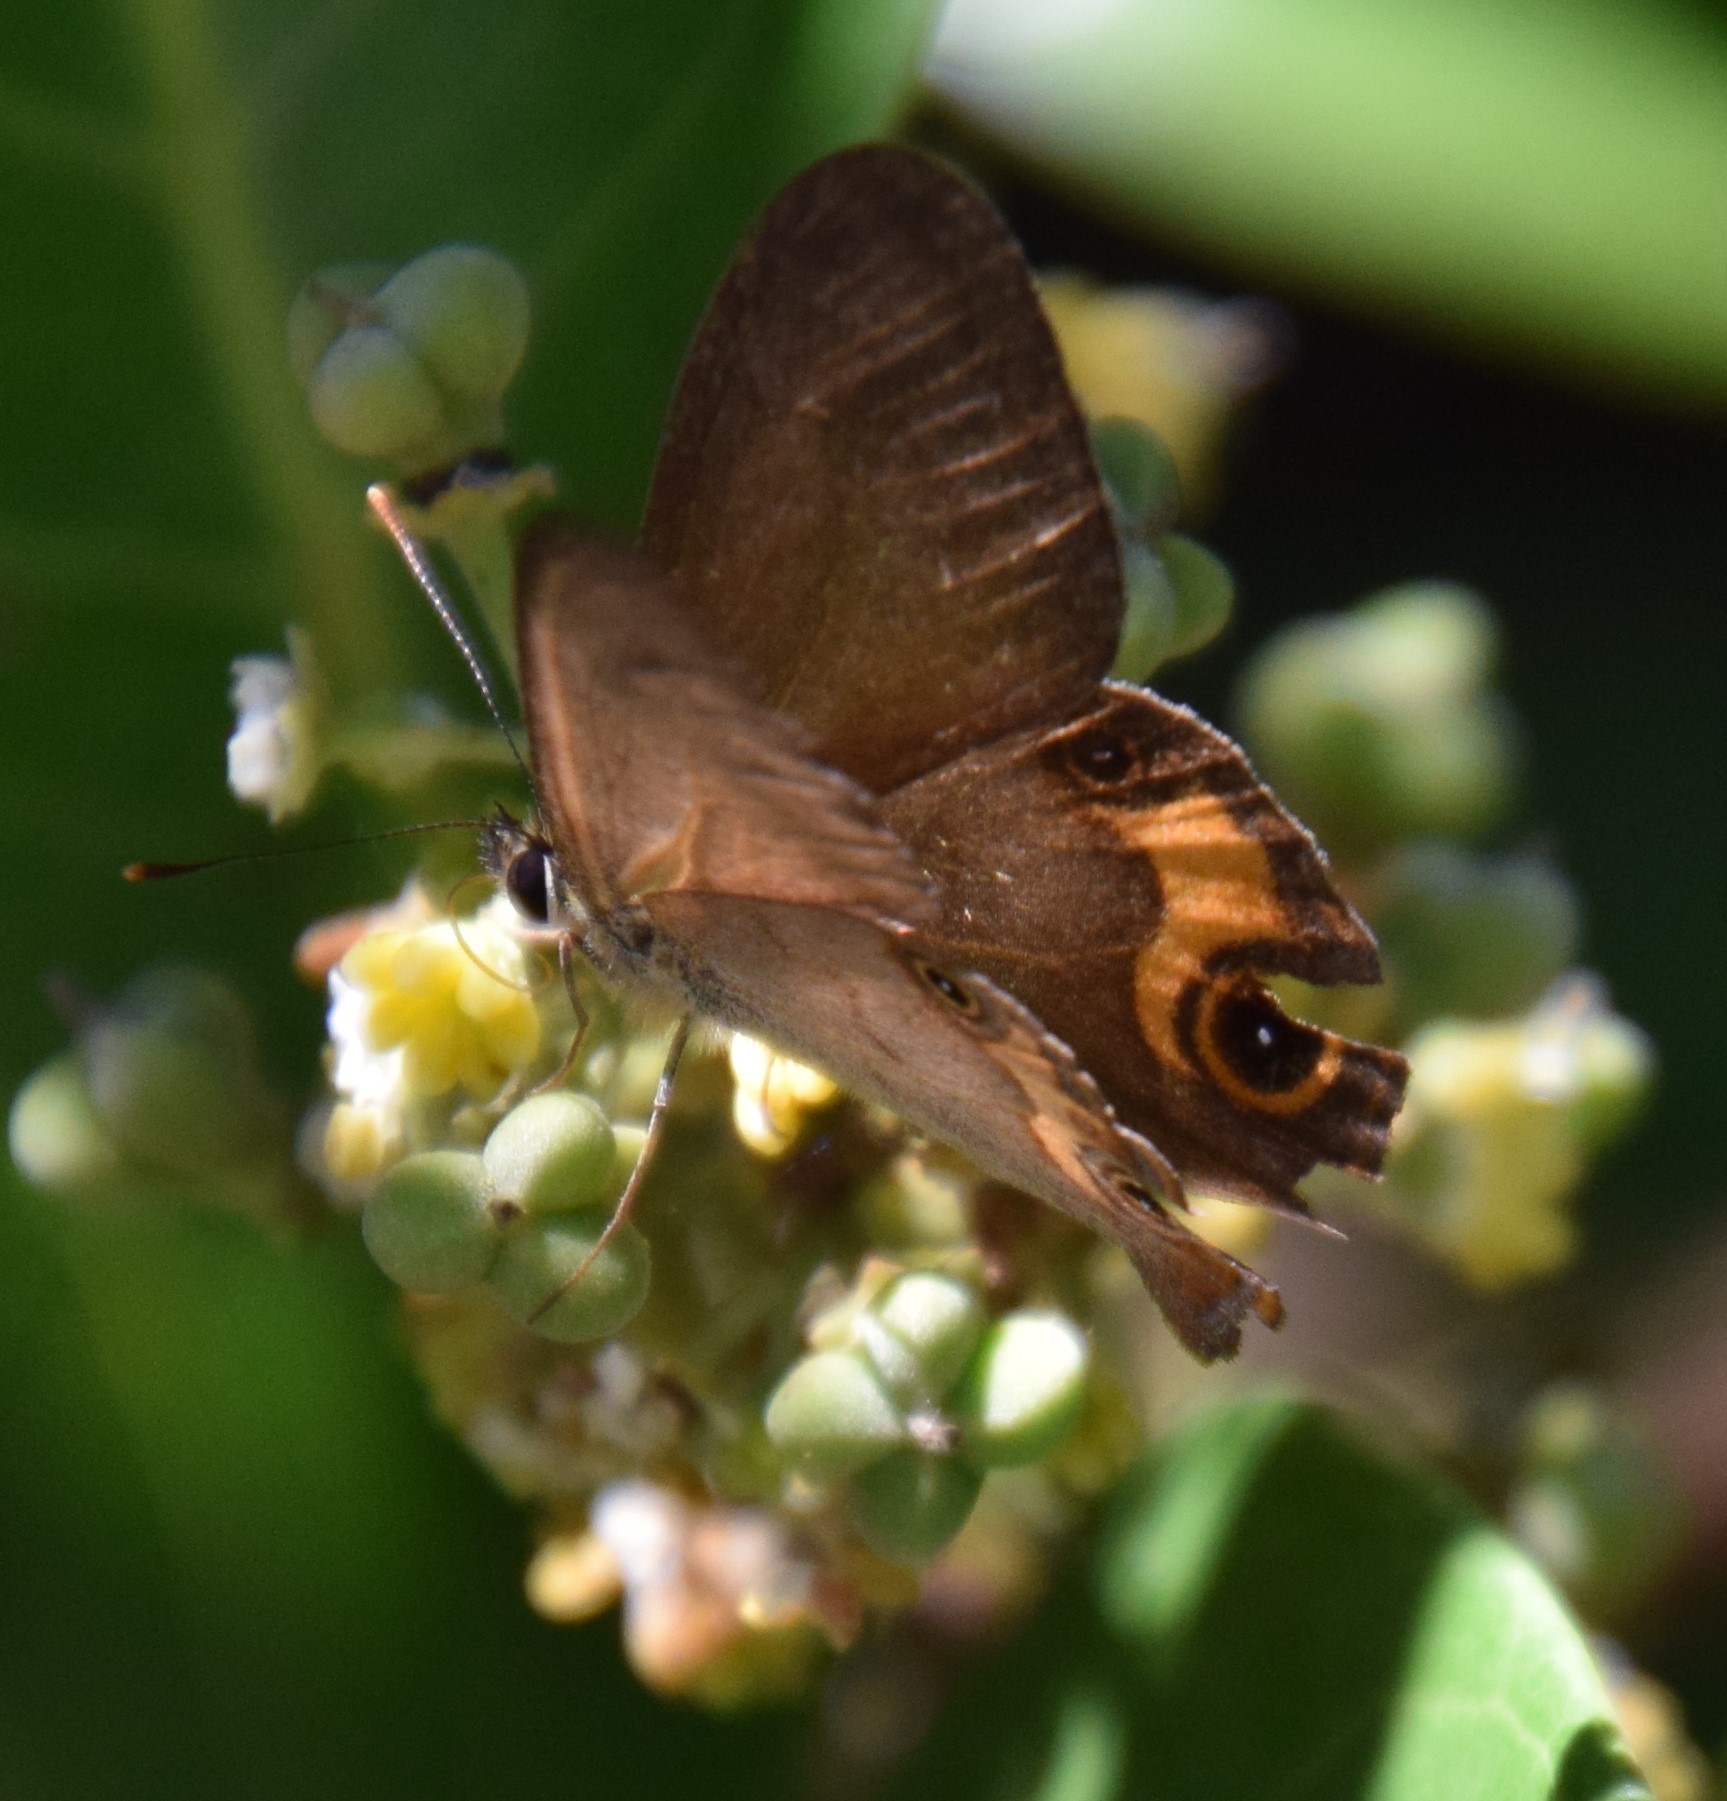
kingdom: Animalia
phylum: Arthropoda
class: Insecta
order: Lepidoptera
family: Nymphalidae
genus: Hypocysta
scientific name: Hypocysta metirius
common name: Brown ringlet
